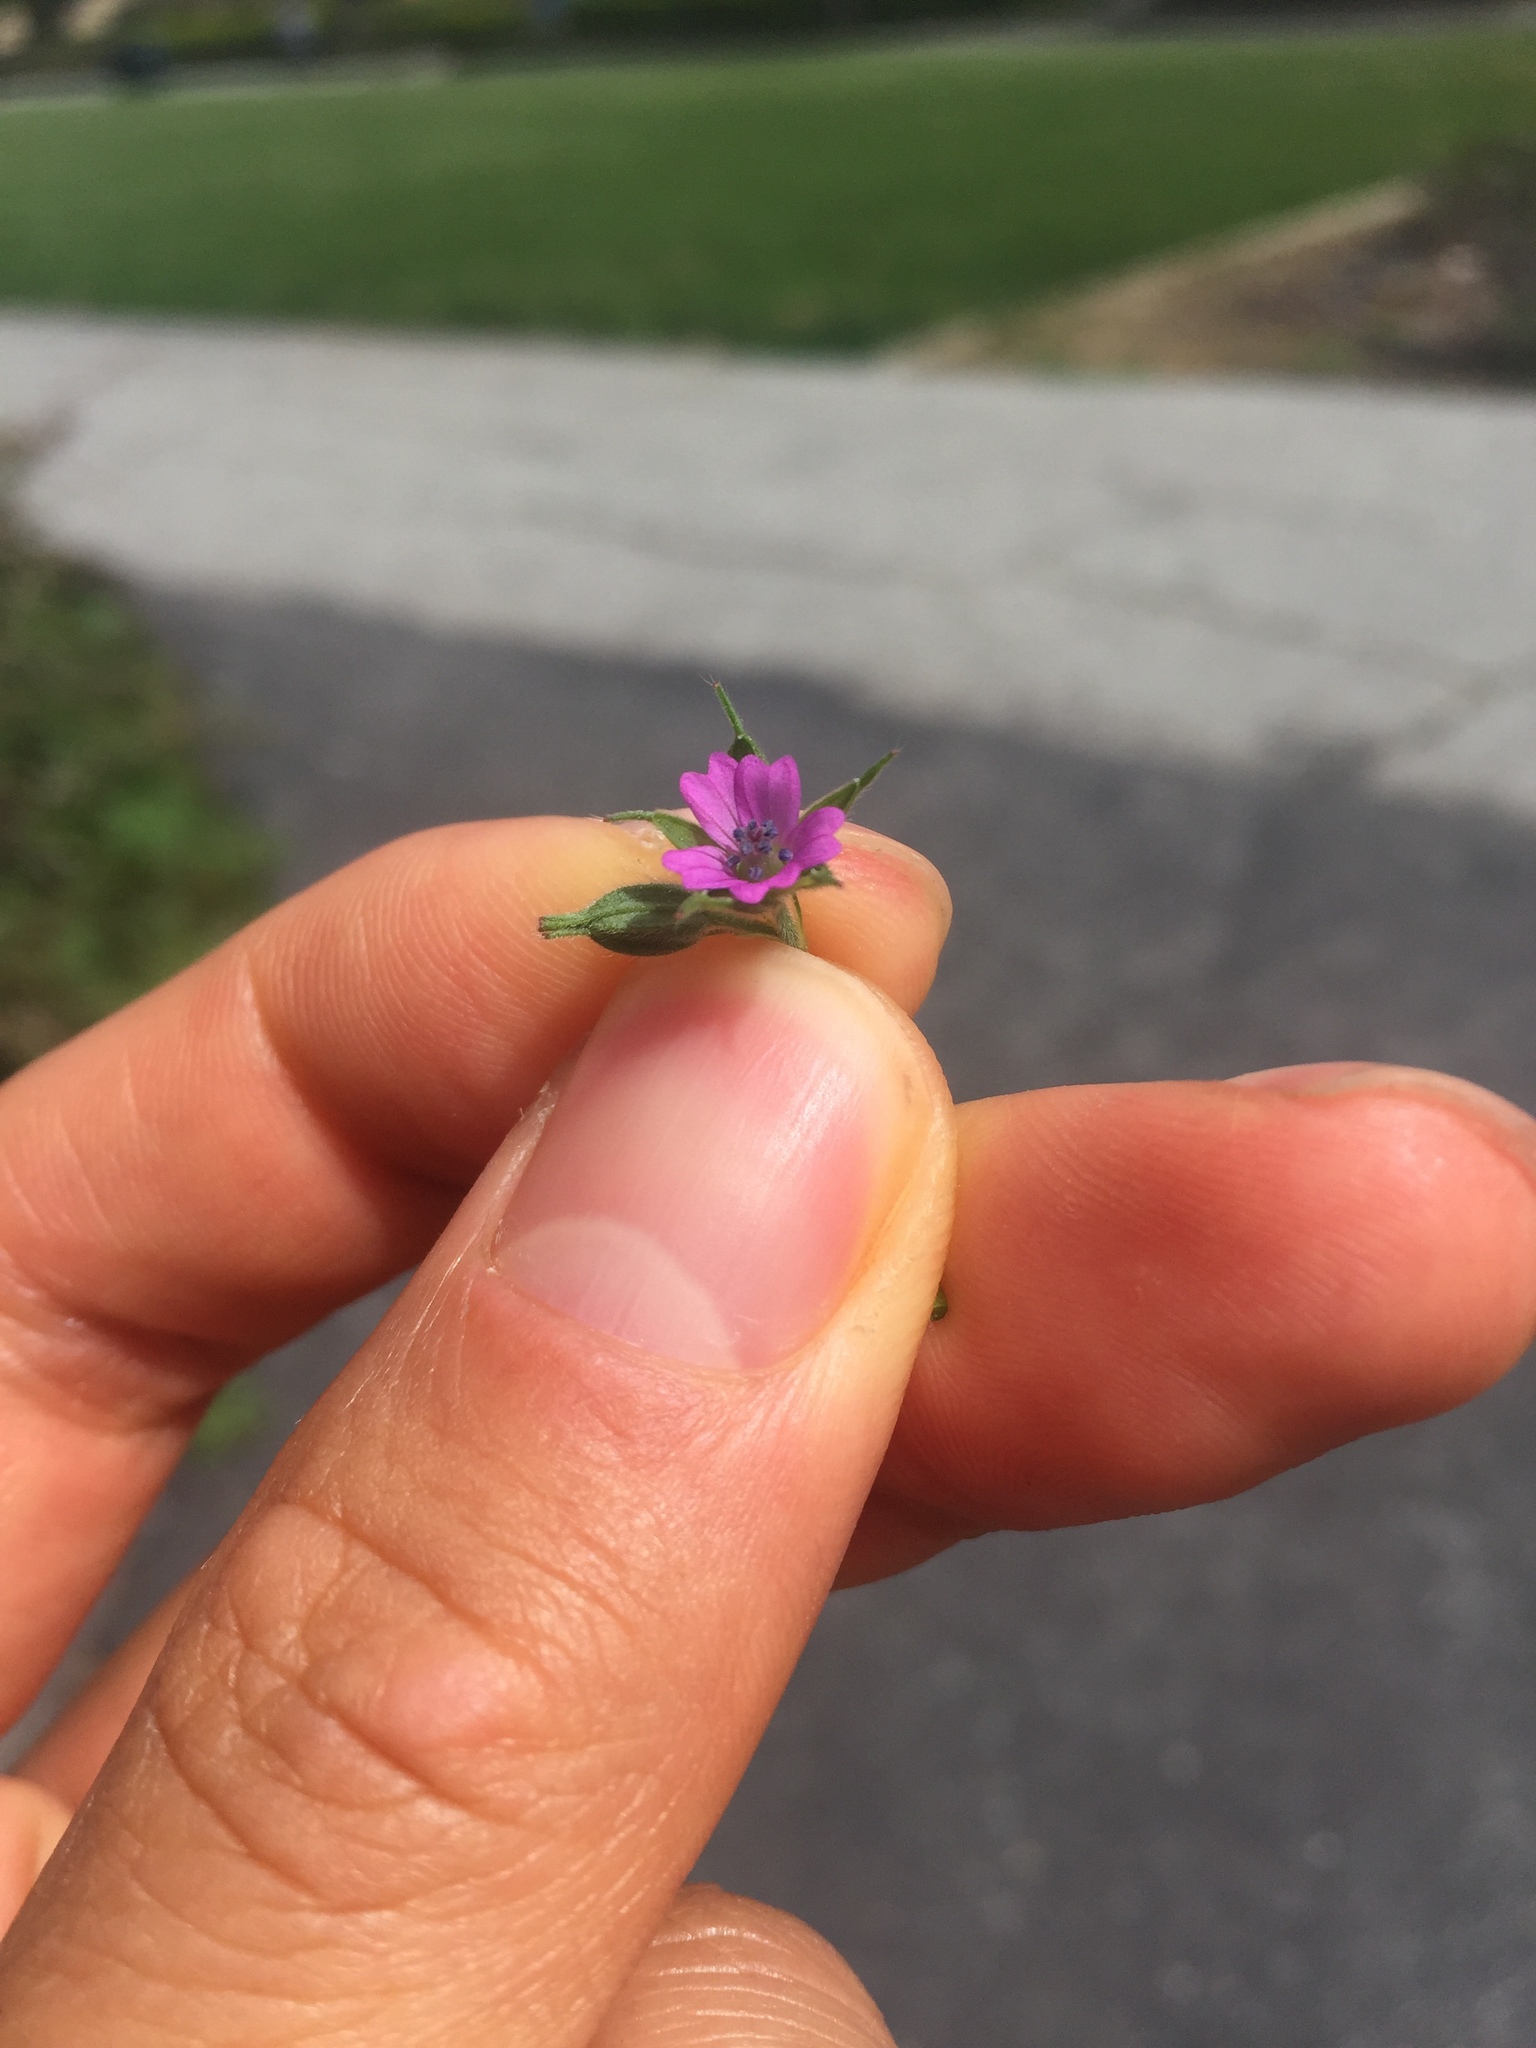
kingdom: Plantae
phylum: Tracheophyta
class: Magnoliopsida
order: Geraniales
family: Geraniaceae
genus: Geranium
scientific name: Geranium dissectum
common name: Cut-leaved crane's-bill
